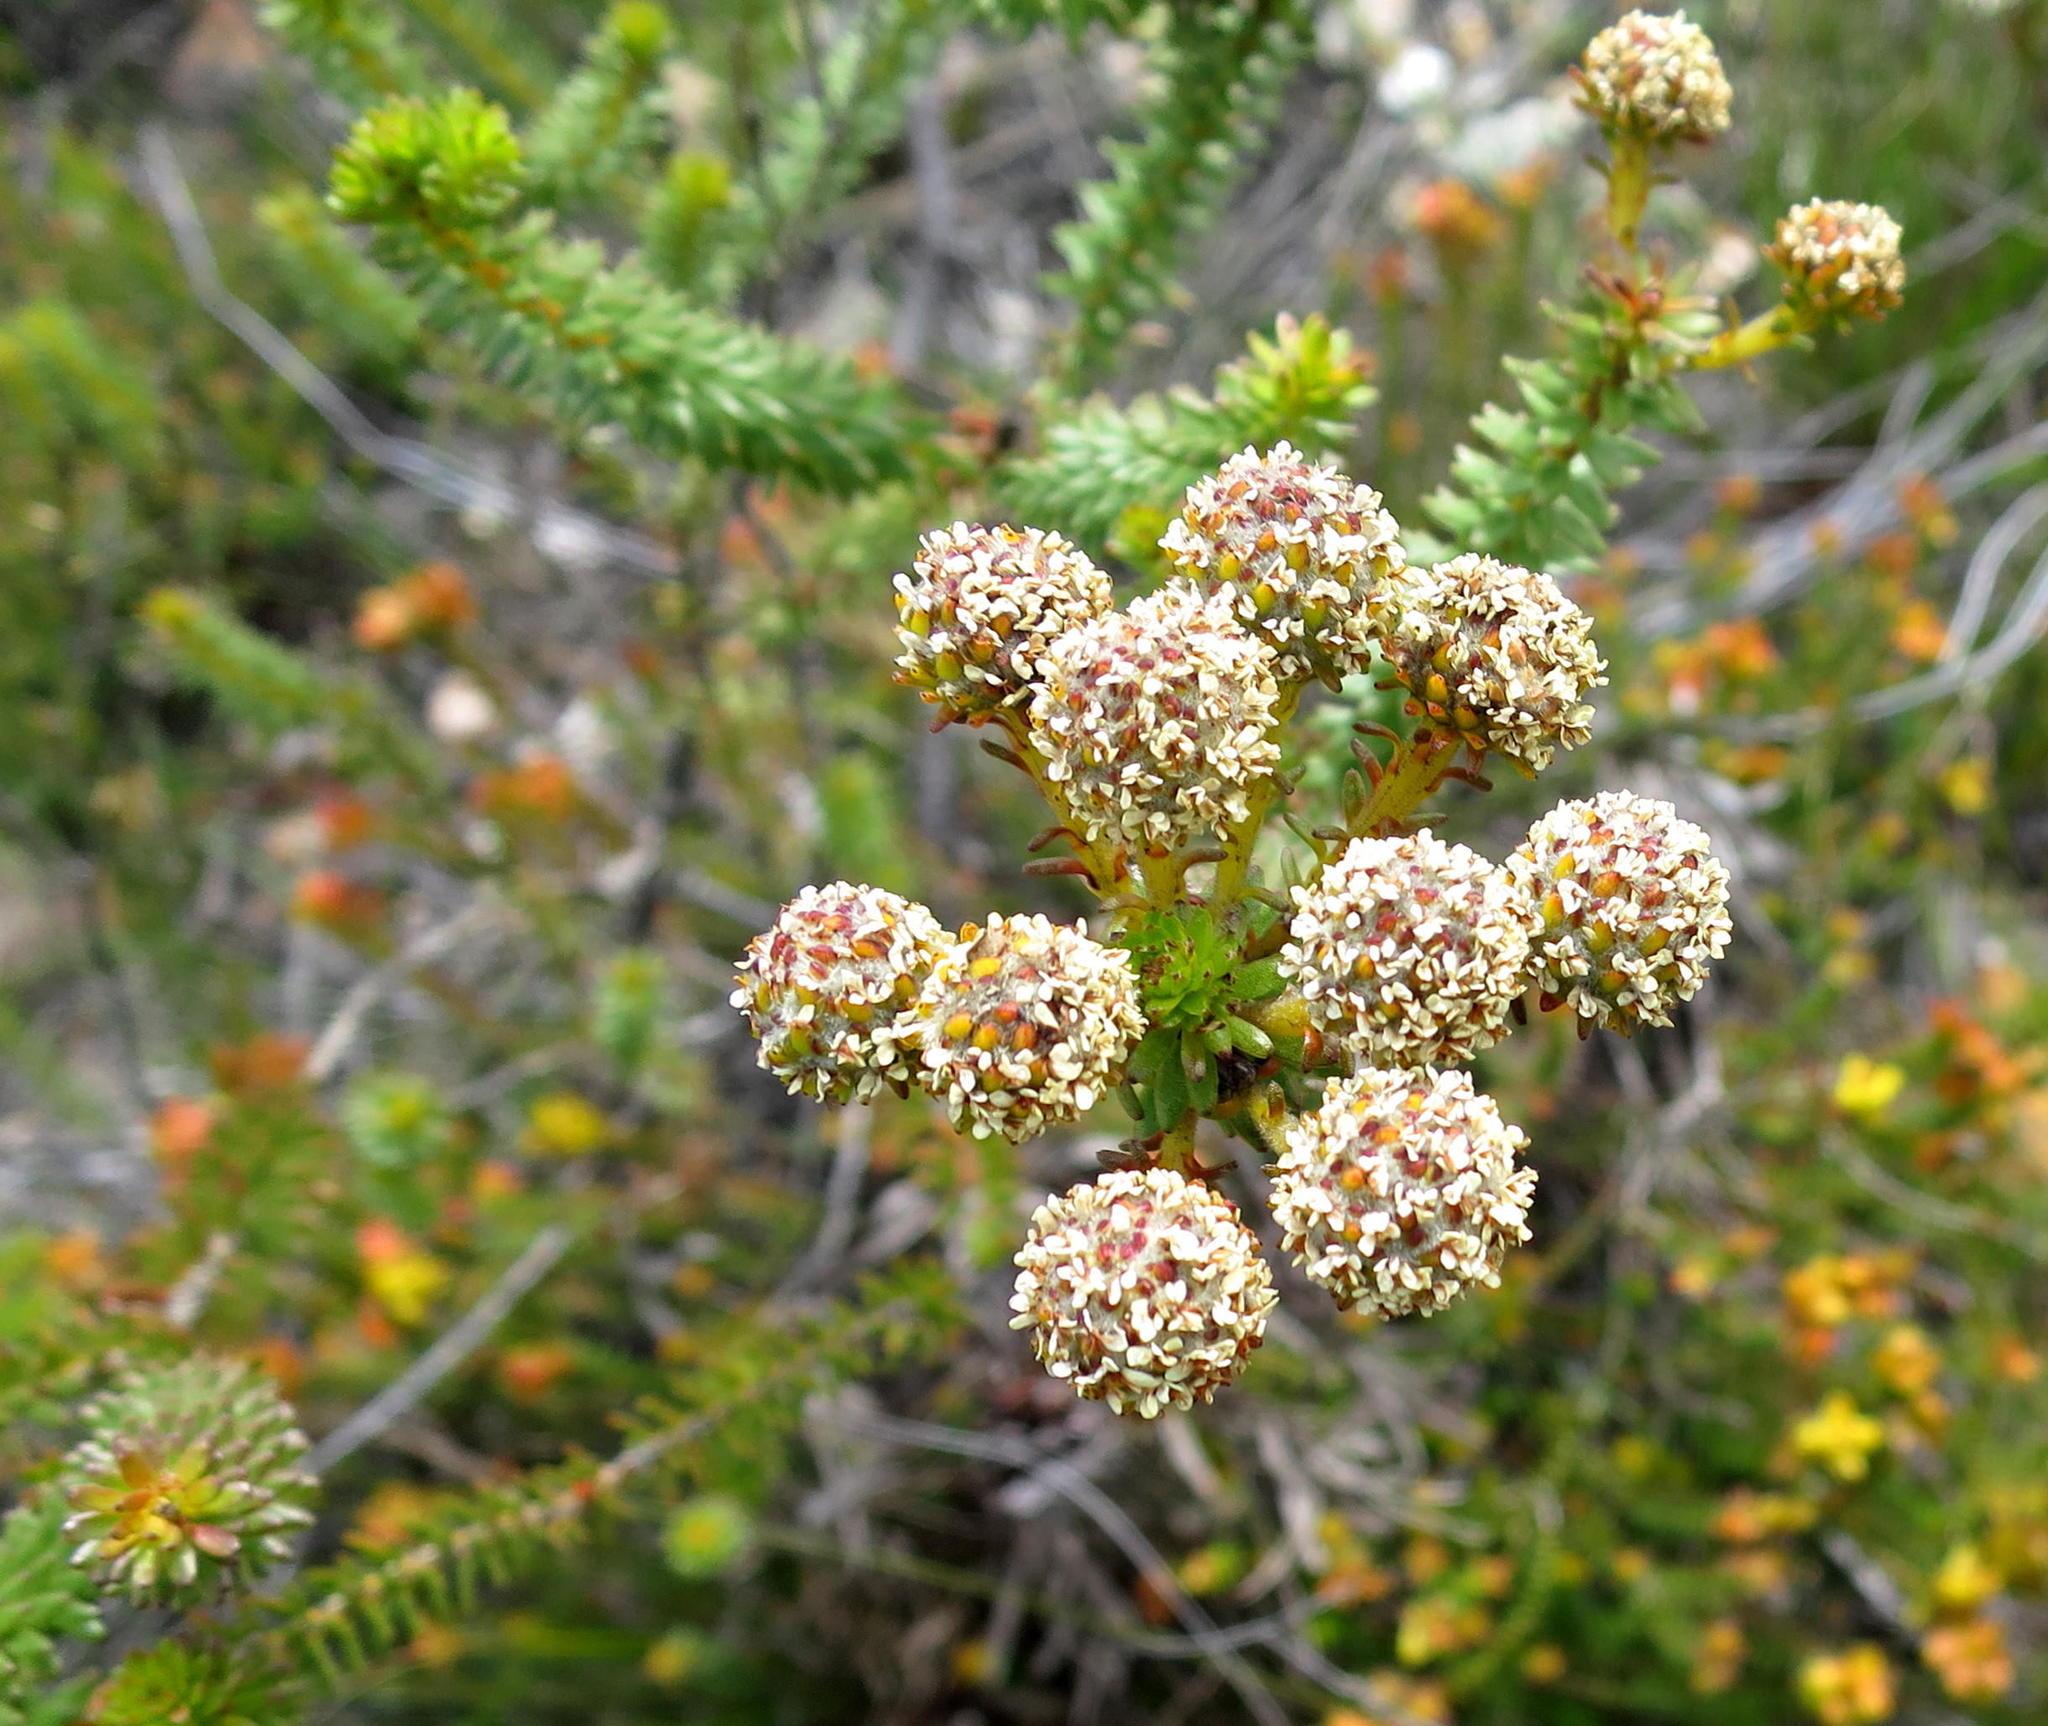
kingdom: Plantae
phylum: Tracheophyta
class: Magnoliopsida
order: Bruniales
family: Bruniaceae
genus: Berzelia
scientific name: Berzelia cordifolia
